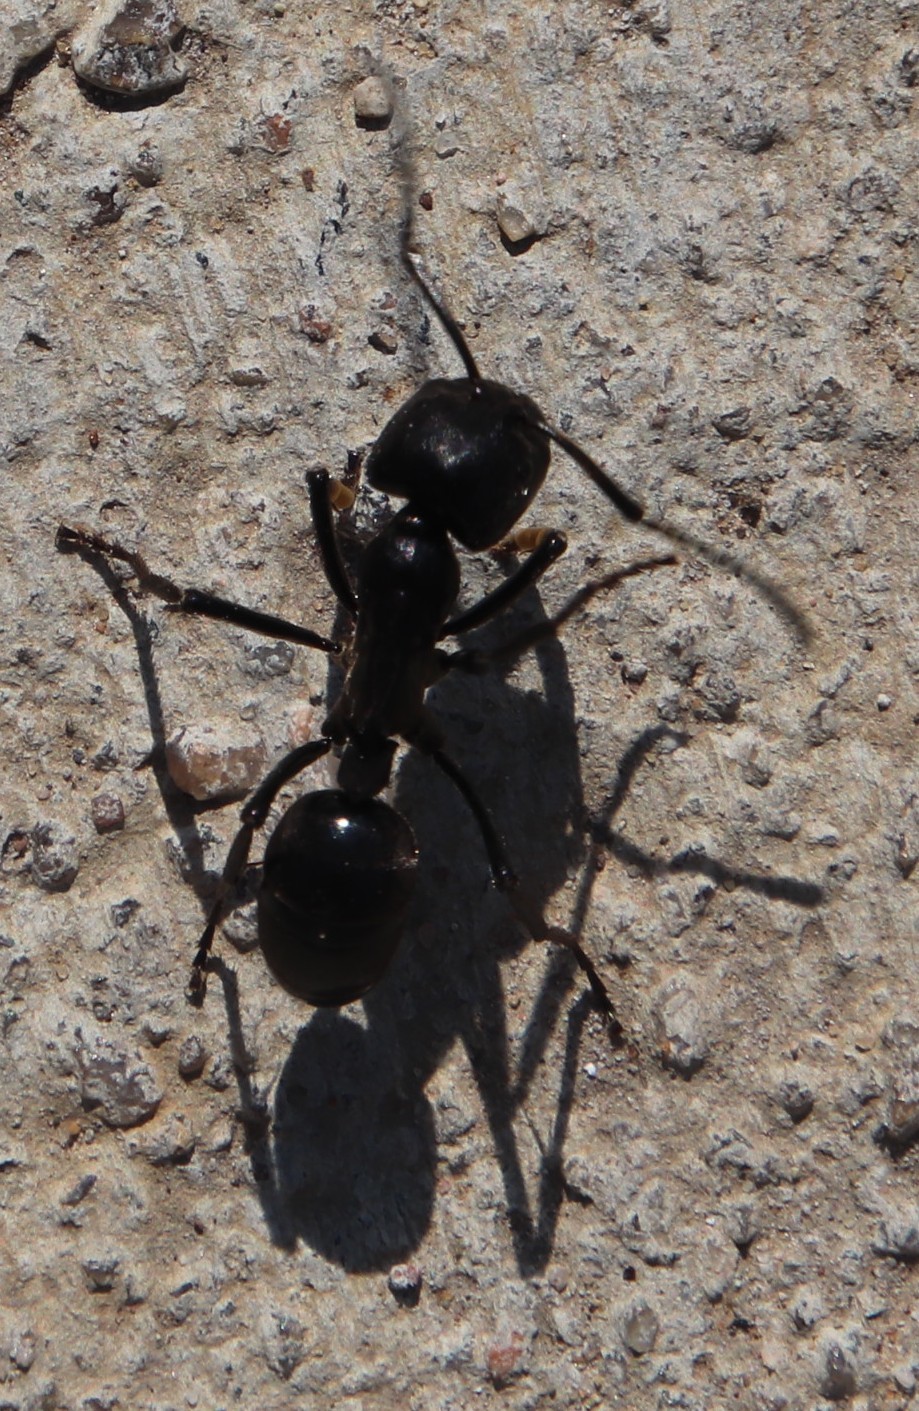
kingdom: Animalia
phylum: Arthropoda
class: Insecta
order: Hymenoptera
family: Formicidae
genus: Streblognathus
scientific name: Streblognathus peetersi
